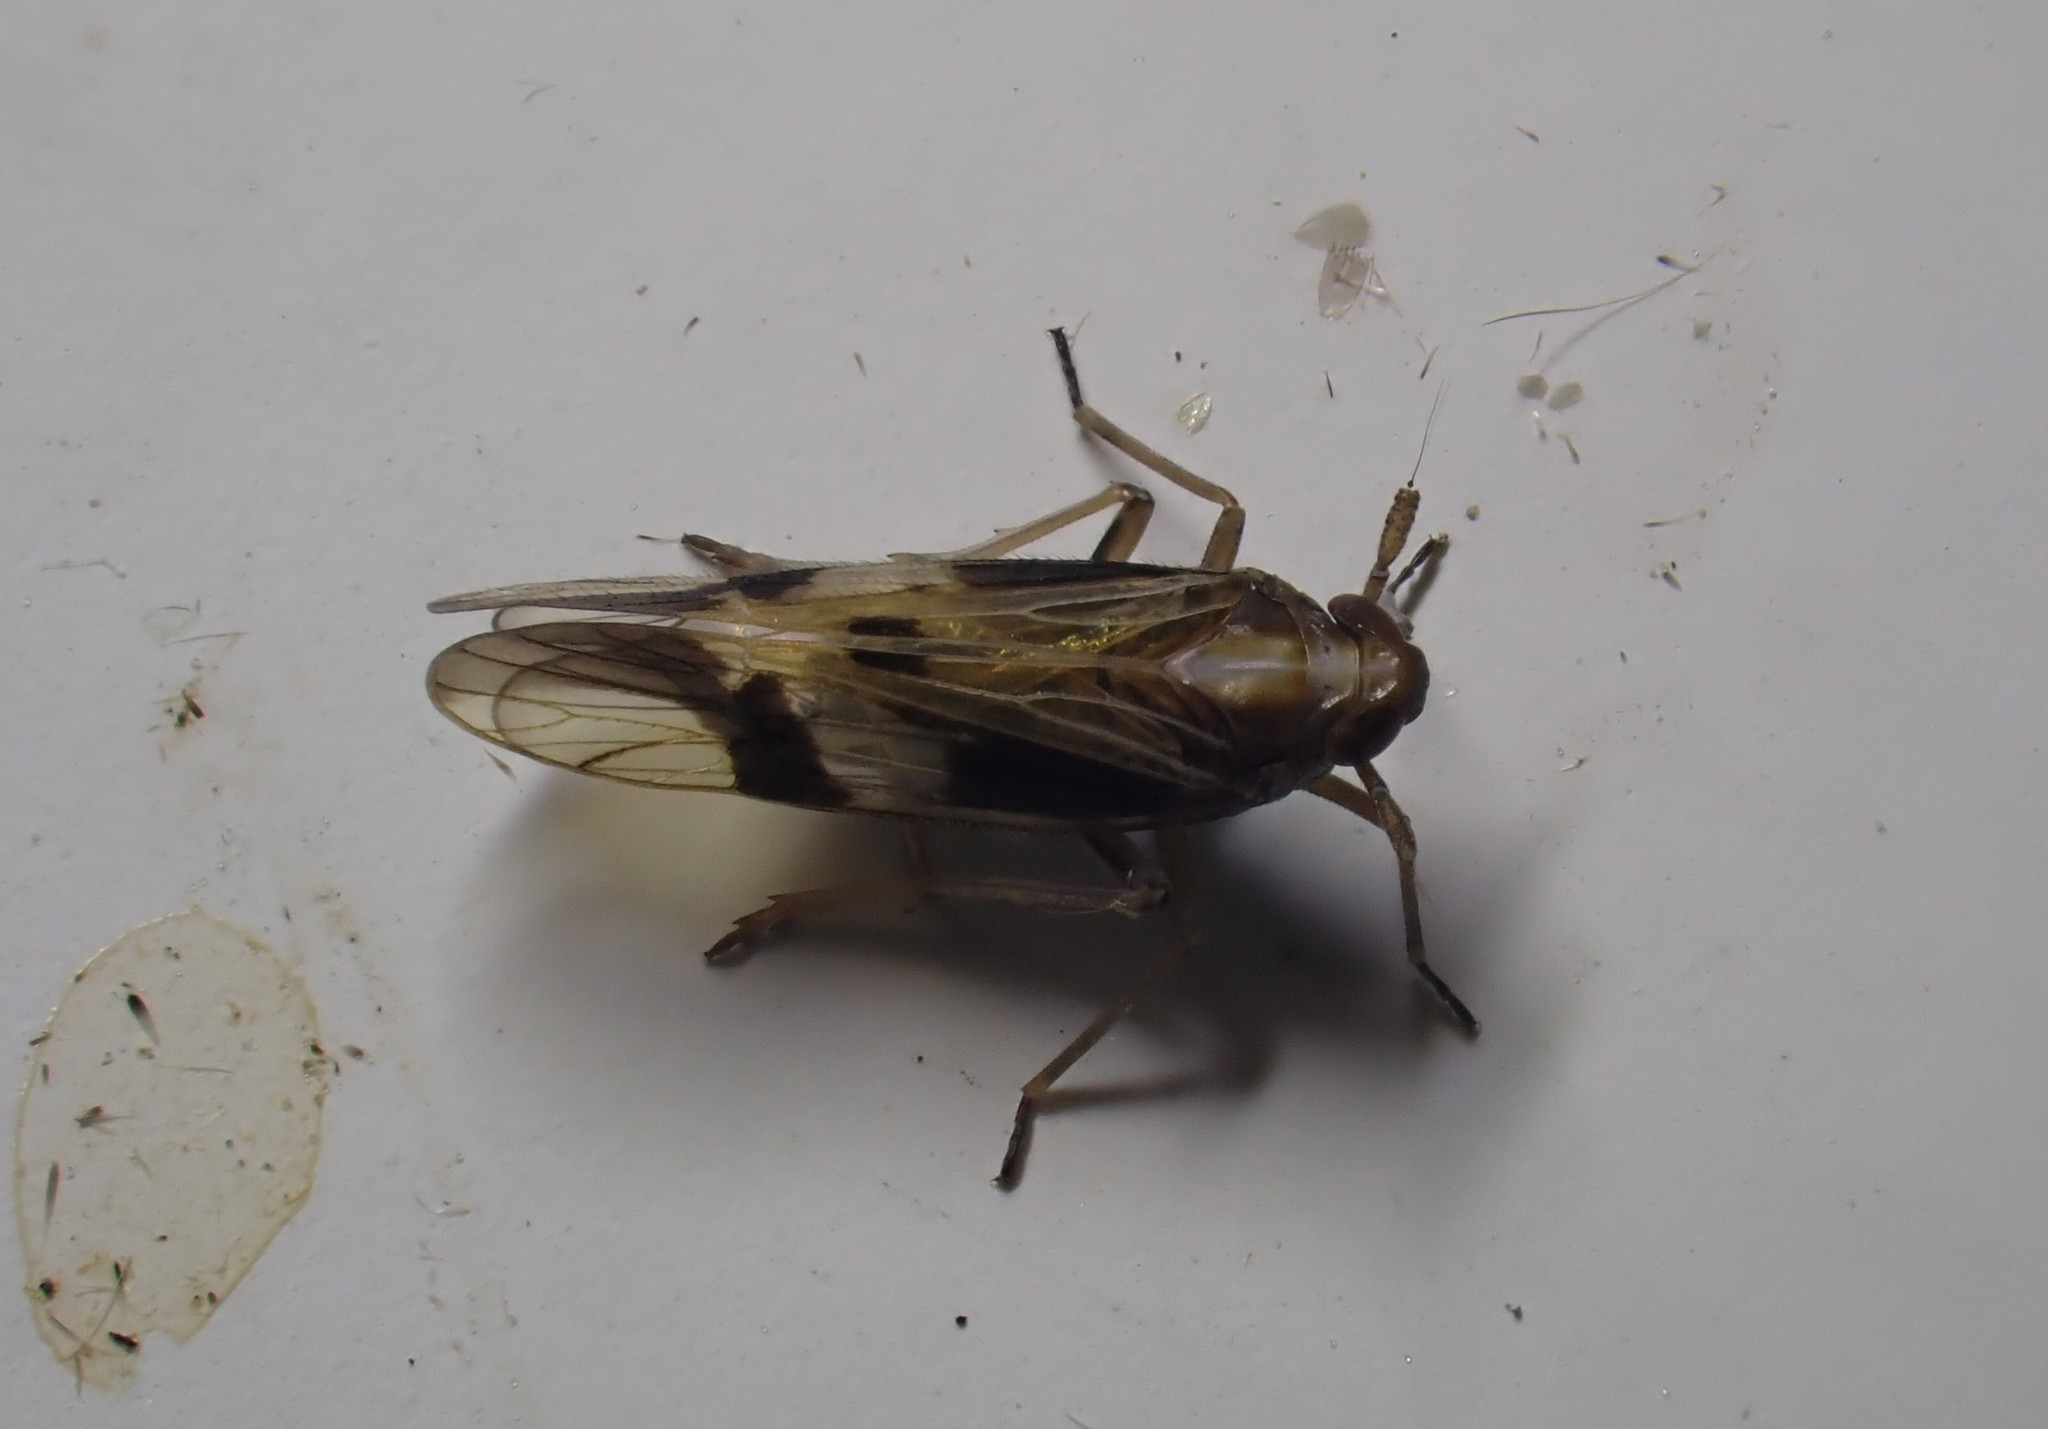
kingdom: Animalia
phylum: Arthropoda
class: Insecta
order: Hemiptera
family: Delphacidae
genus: Euides
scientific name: Euides basilinea
